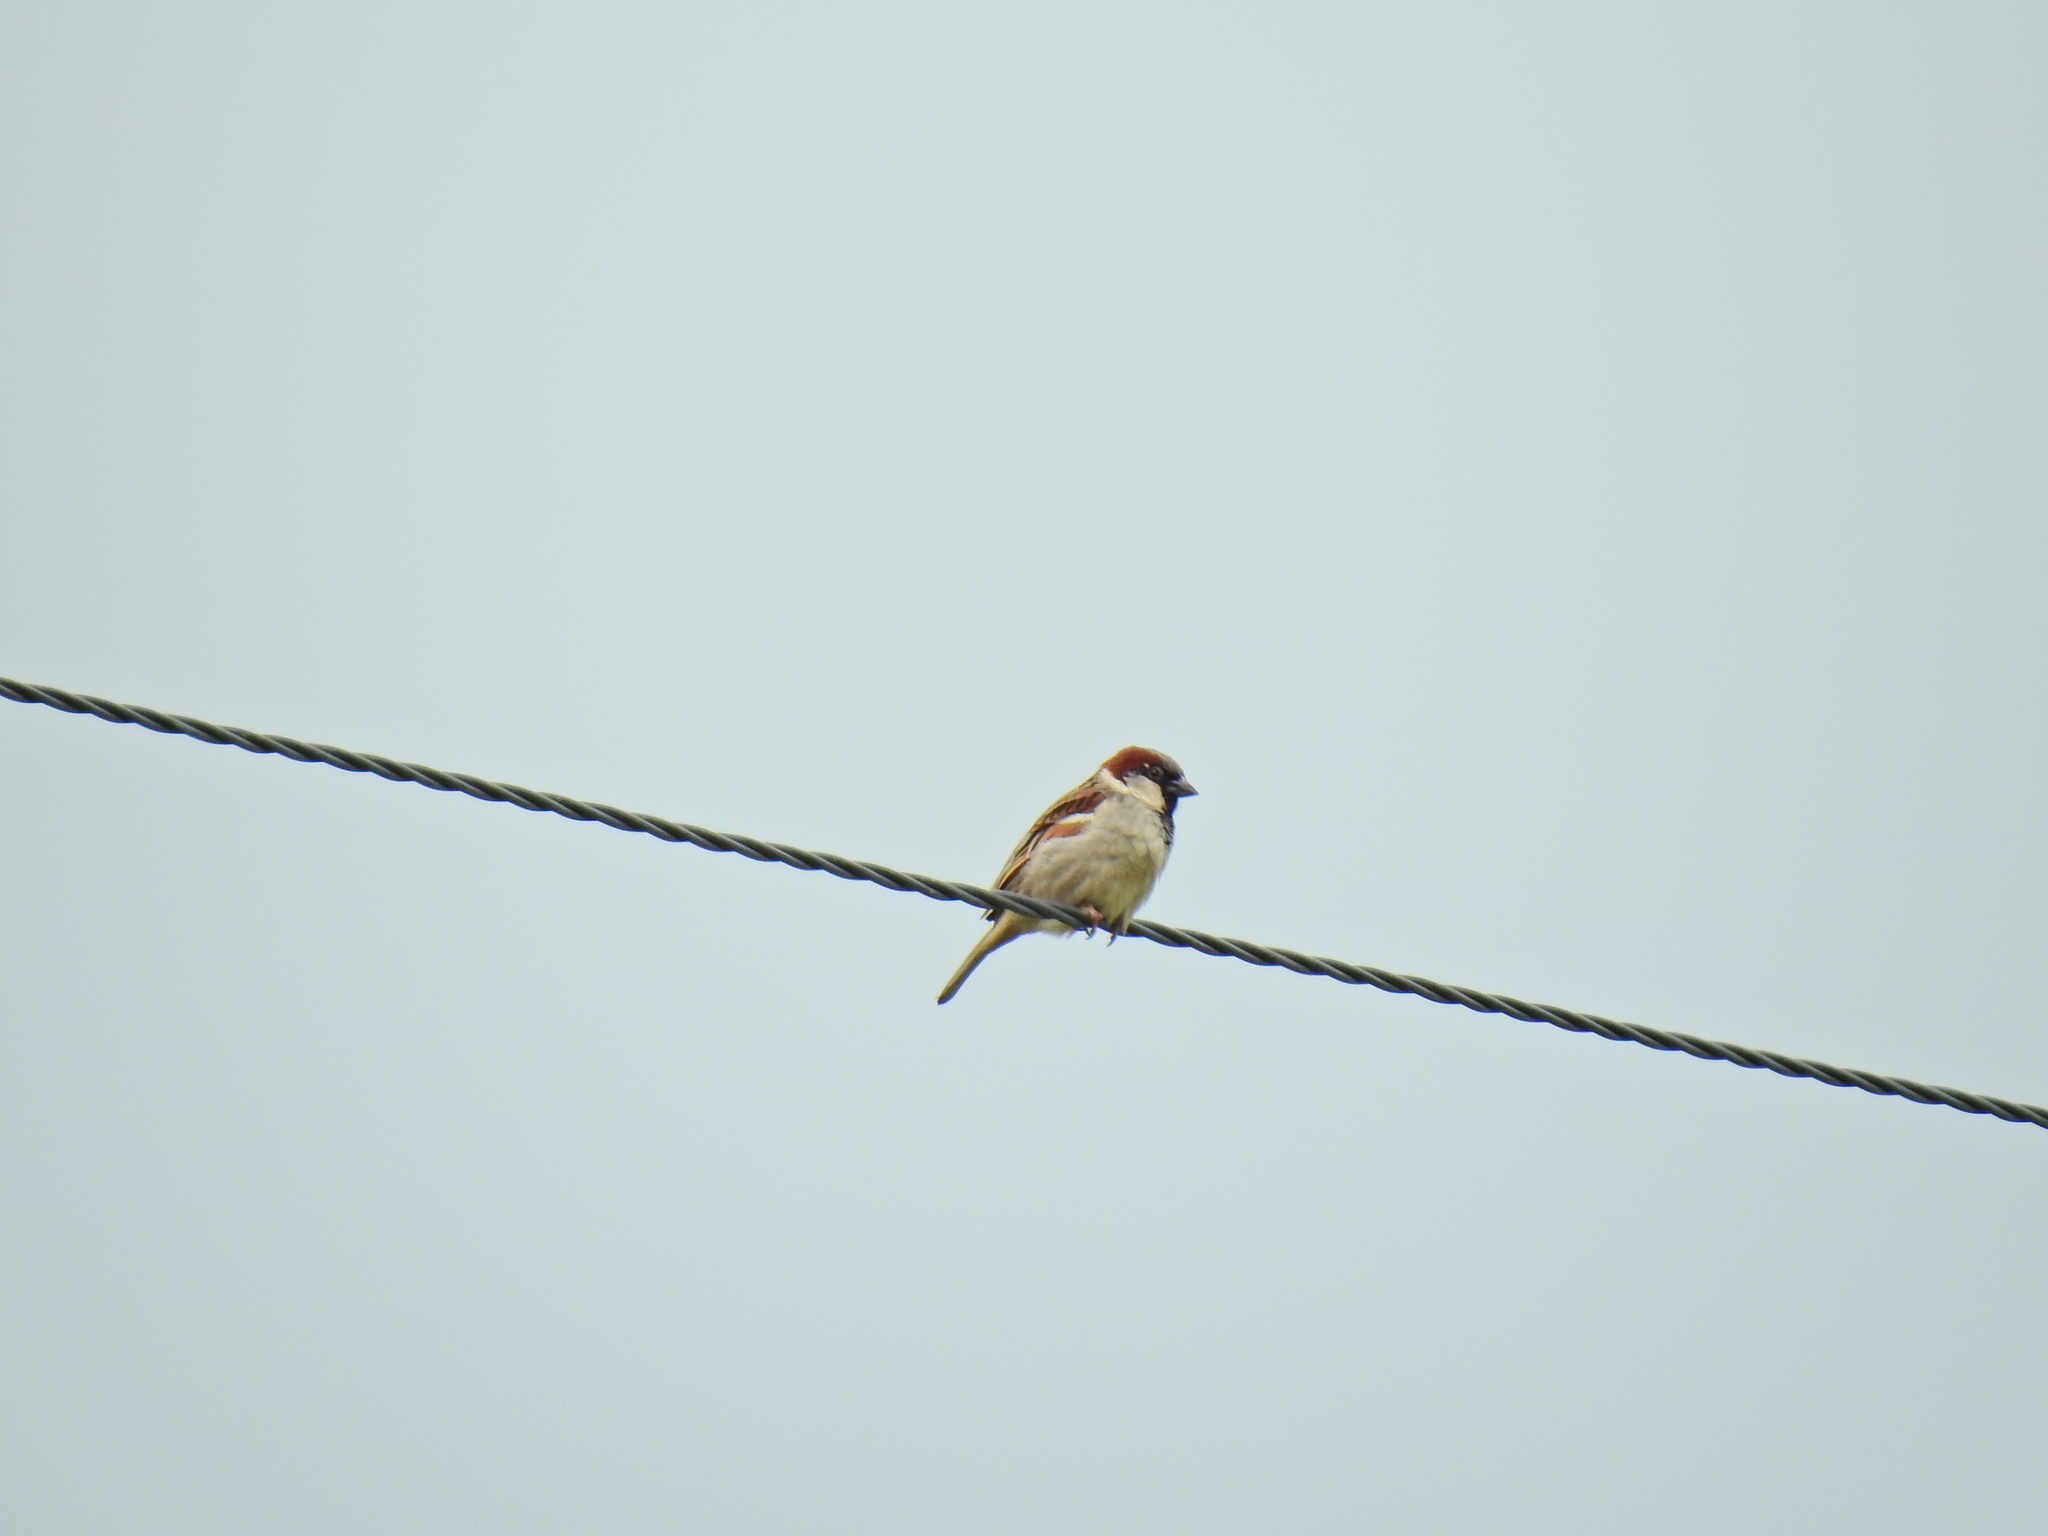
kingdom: Animalia
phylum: Chordata
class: Aves
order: Passeriformes
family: Passeridae
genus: Passer
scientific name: Passer domesticus
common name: House sparrow
